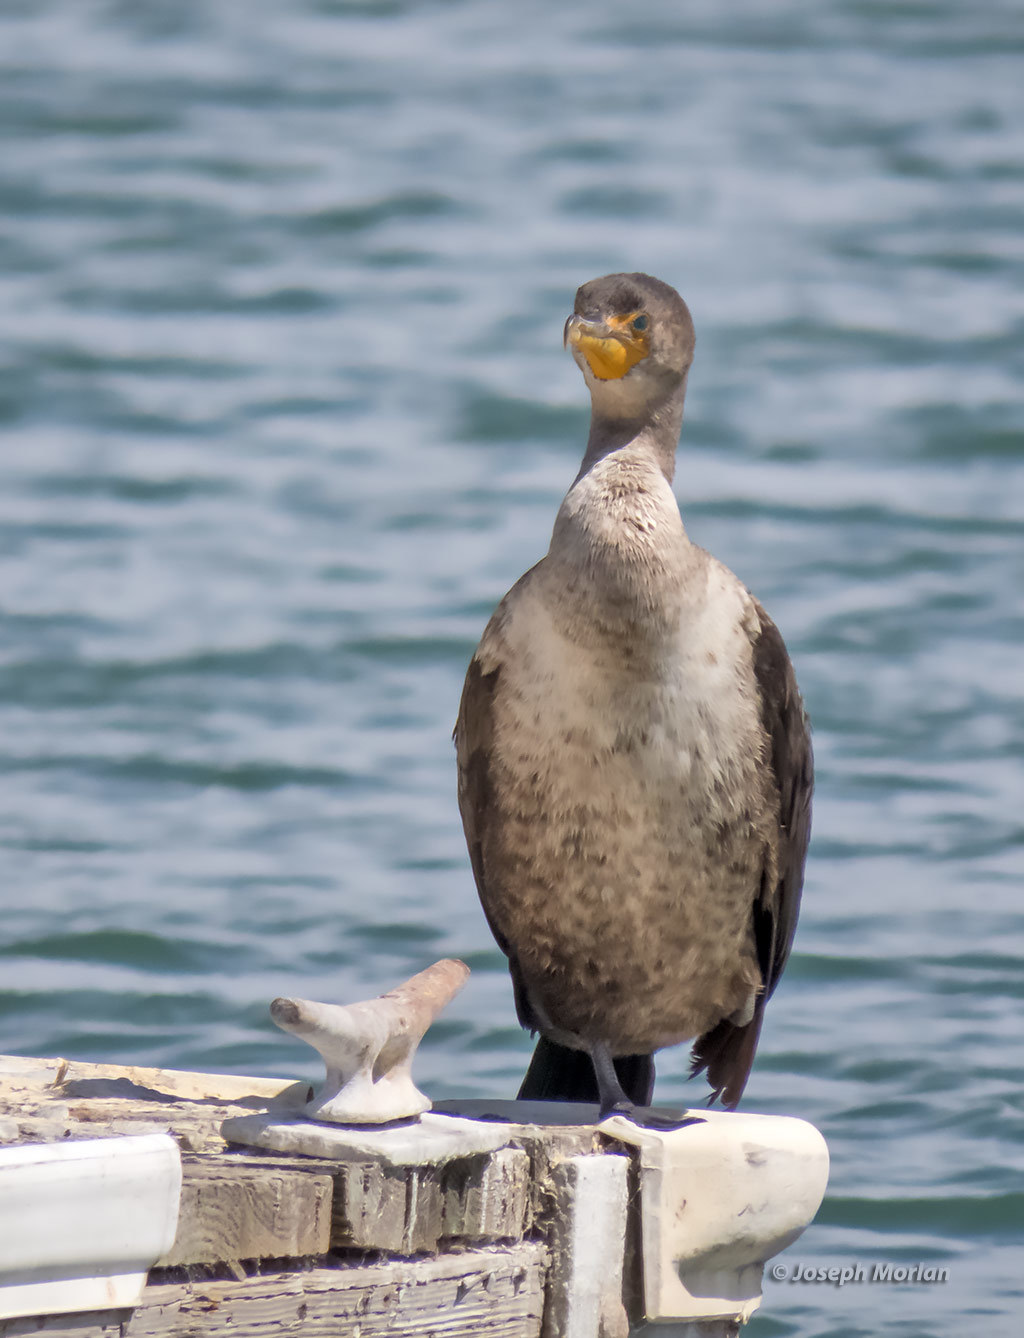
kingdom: Animalia
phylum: Chordata
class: Aves
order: Suliformes
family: Phalacrocoracidae
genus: Phalacrocorax
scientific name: Phalacrocorax auritus
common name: Double-crested cormorant
